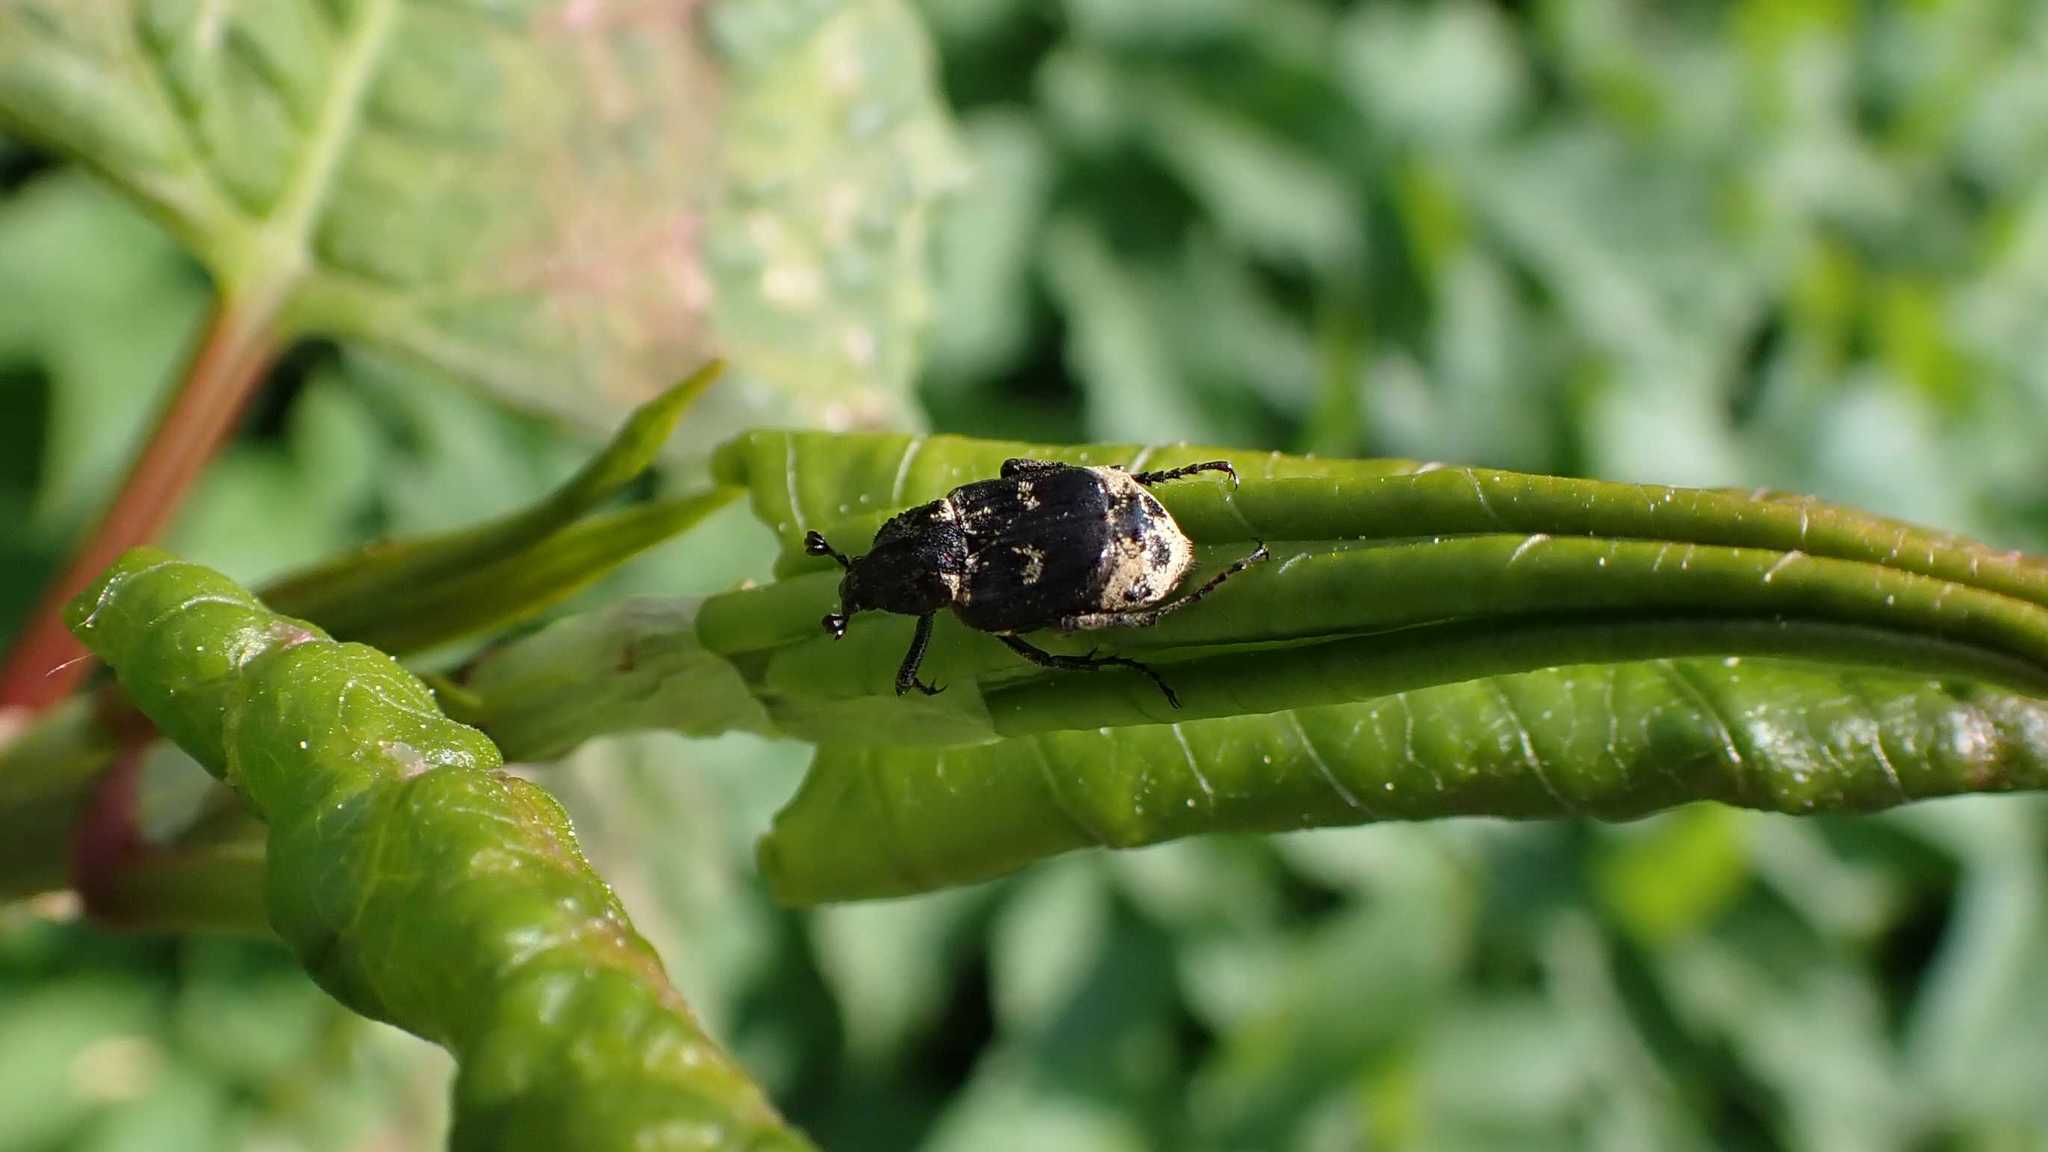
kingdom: Animalia
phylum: Arthropoda
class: Insecta
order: Coleoptera
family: Scarabaeidae
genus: Valgus
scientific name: Valgus hemipterus
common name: Bug flower chafer
